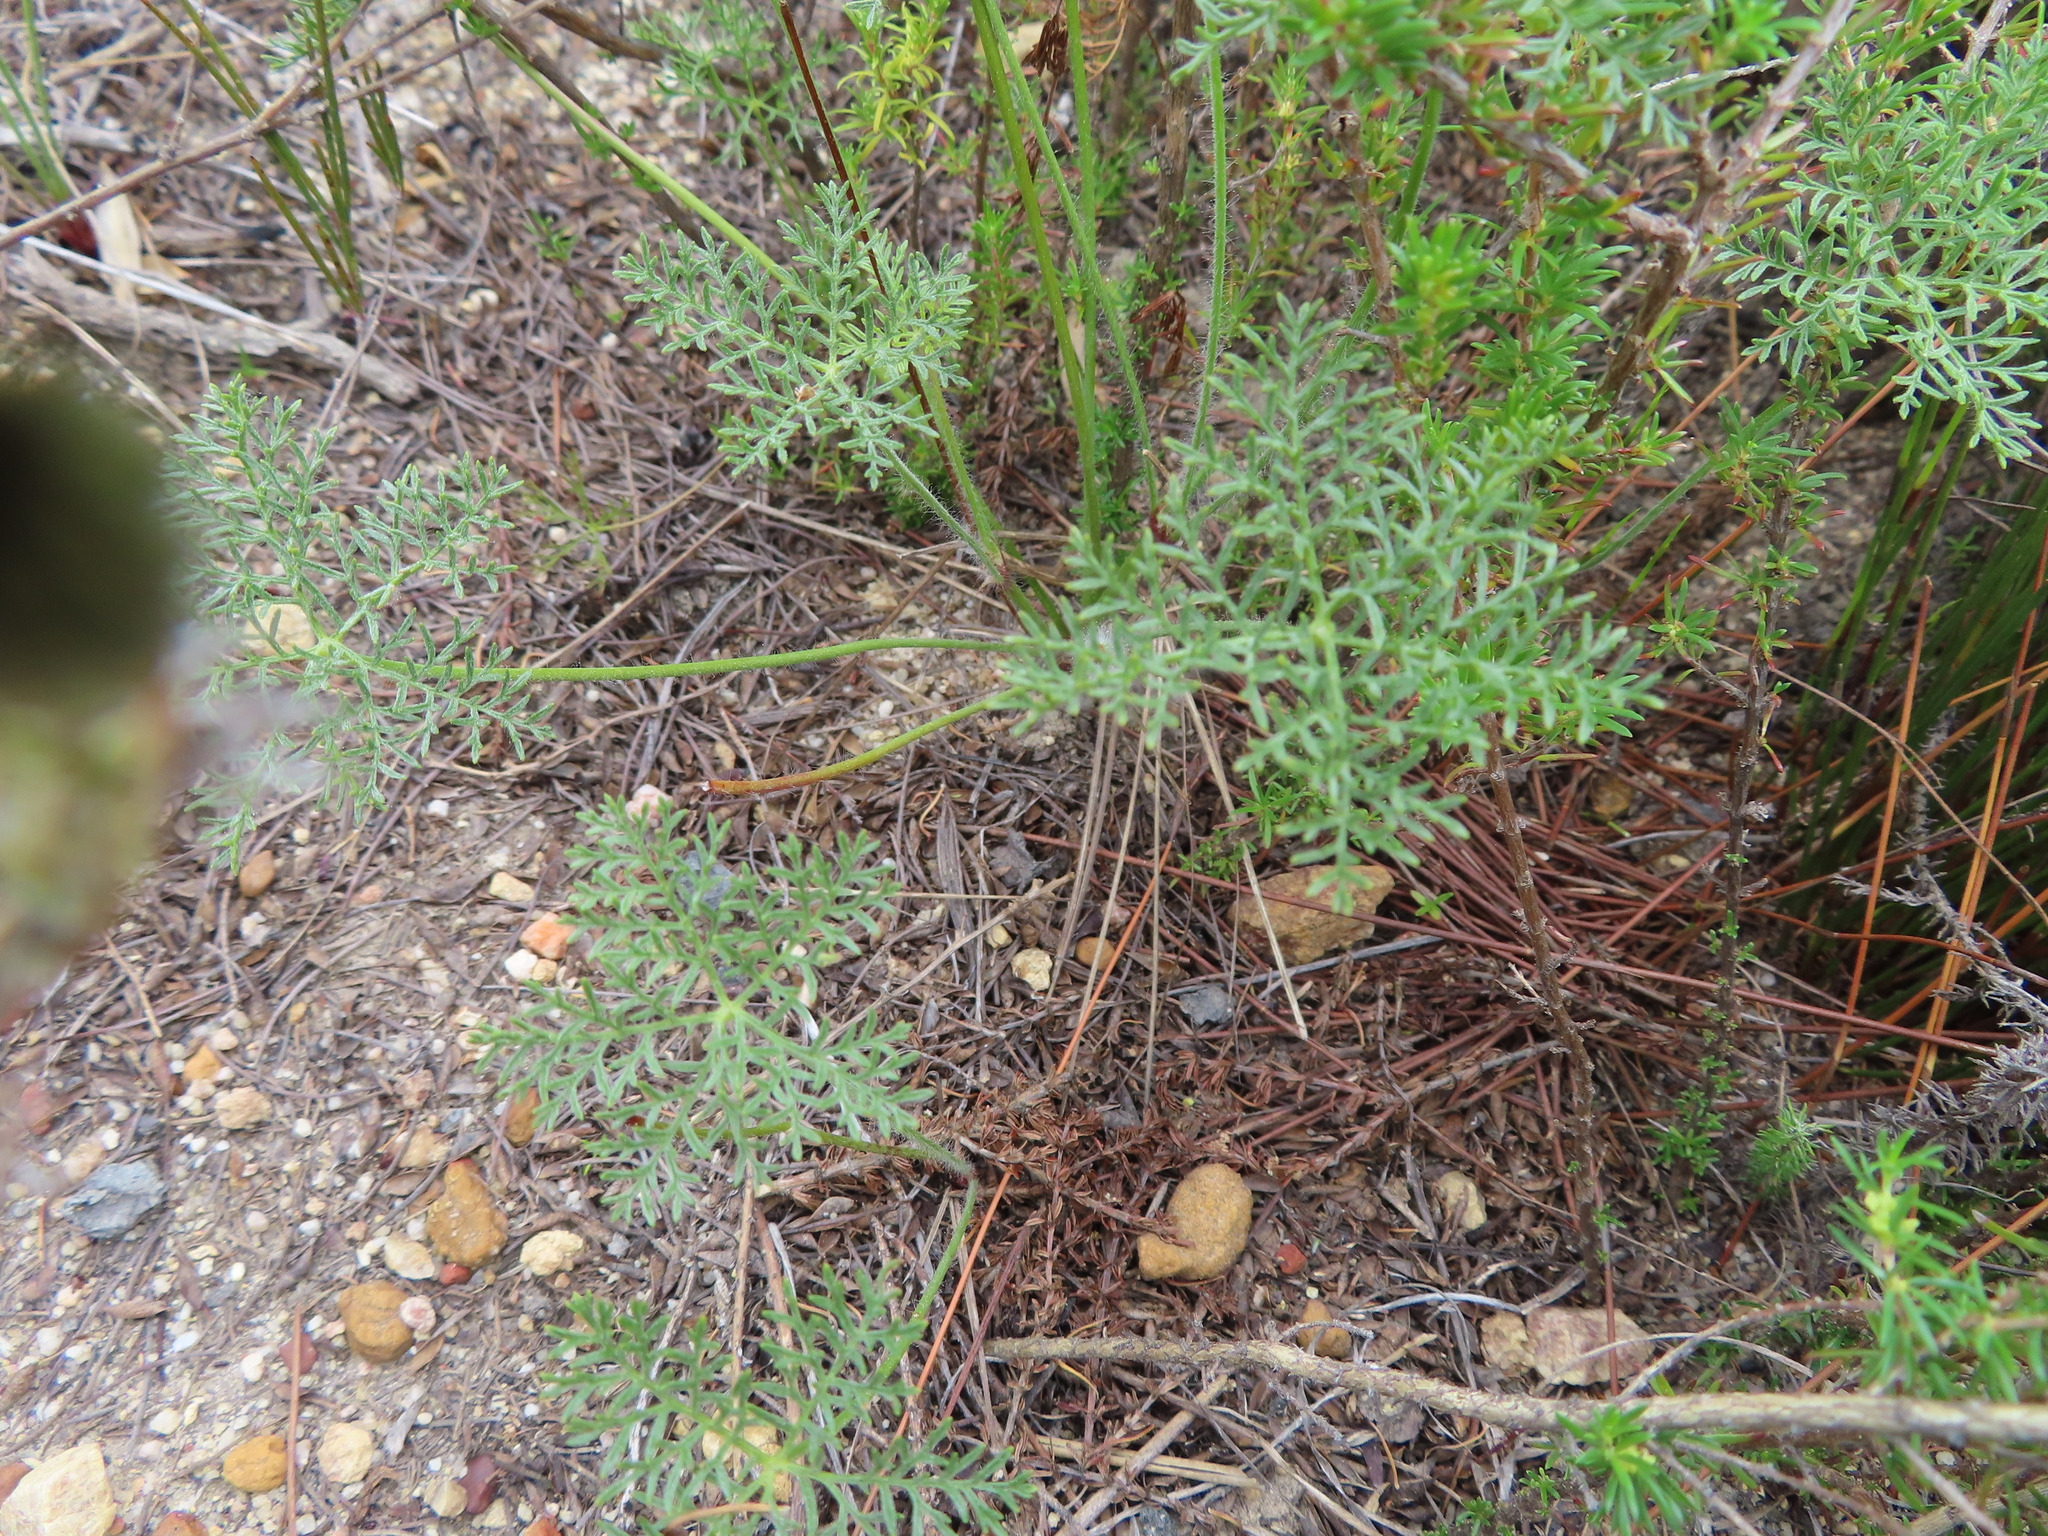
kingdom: Plantae
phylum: Tracheophyta
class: Magnoliopsida
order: Geraniales
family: Geraniaceae
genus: Monsonia
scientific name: Monsonia speciosa
